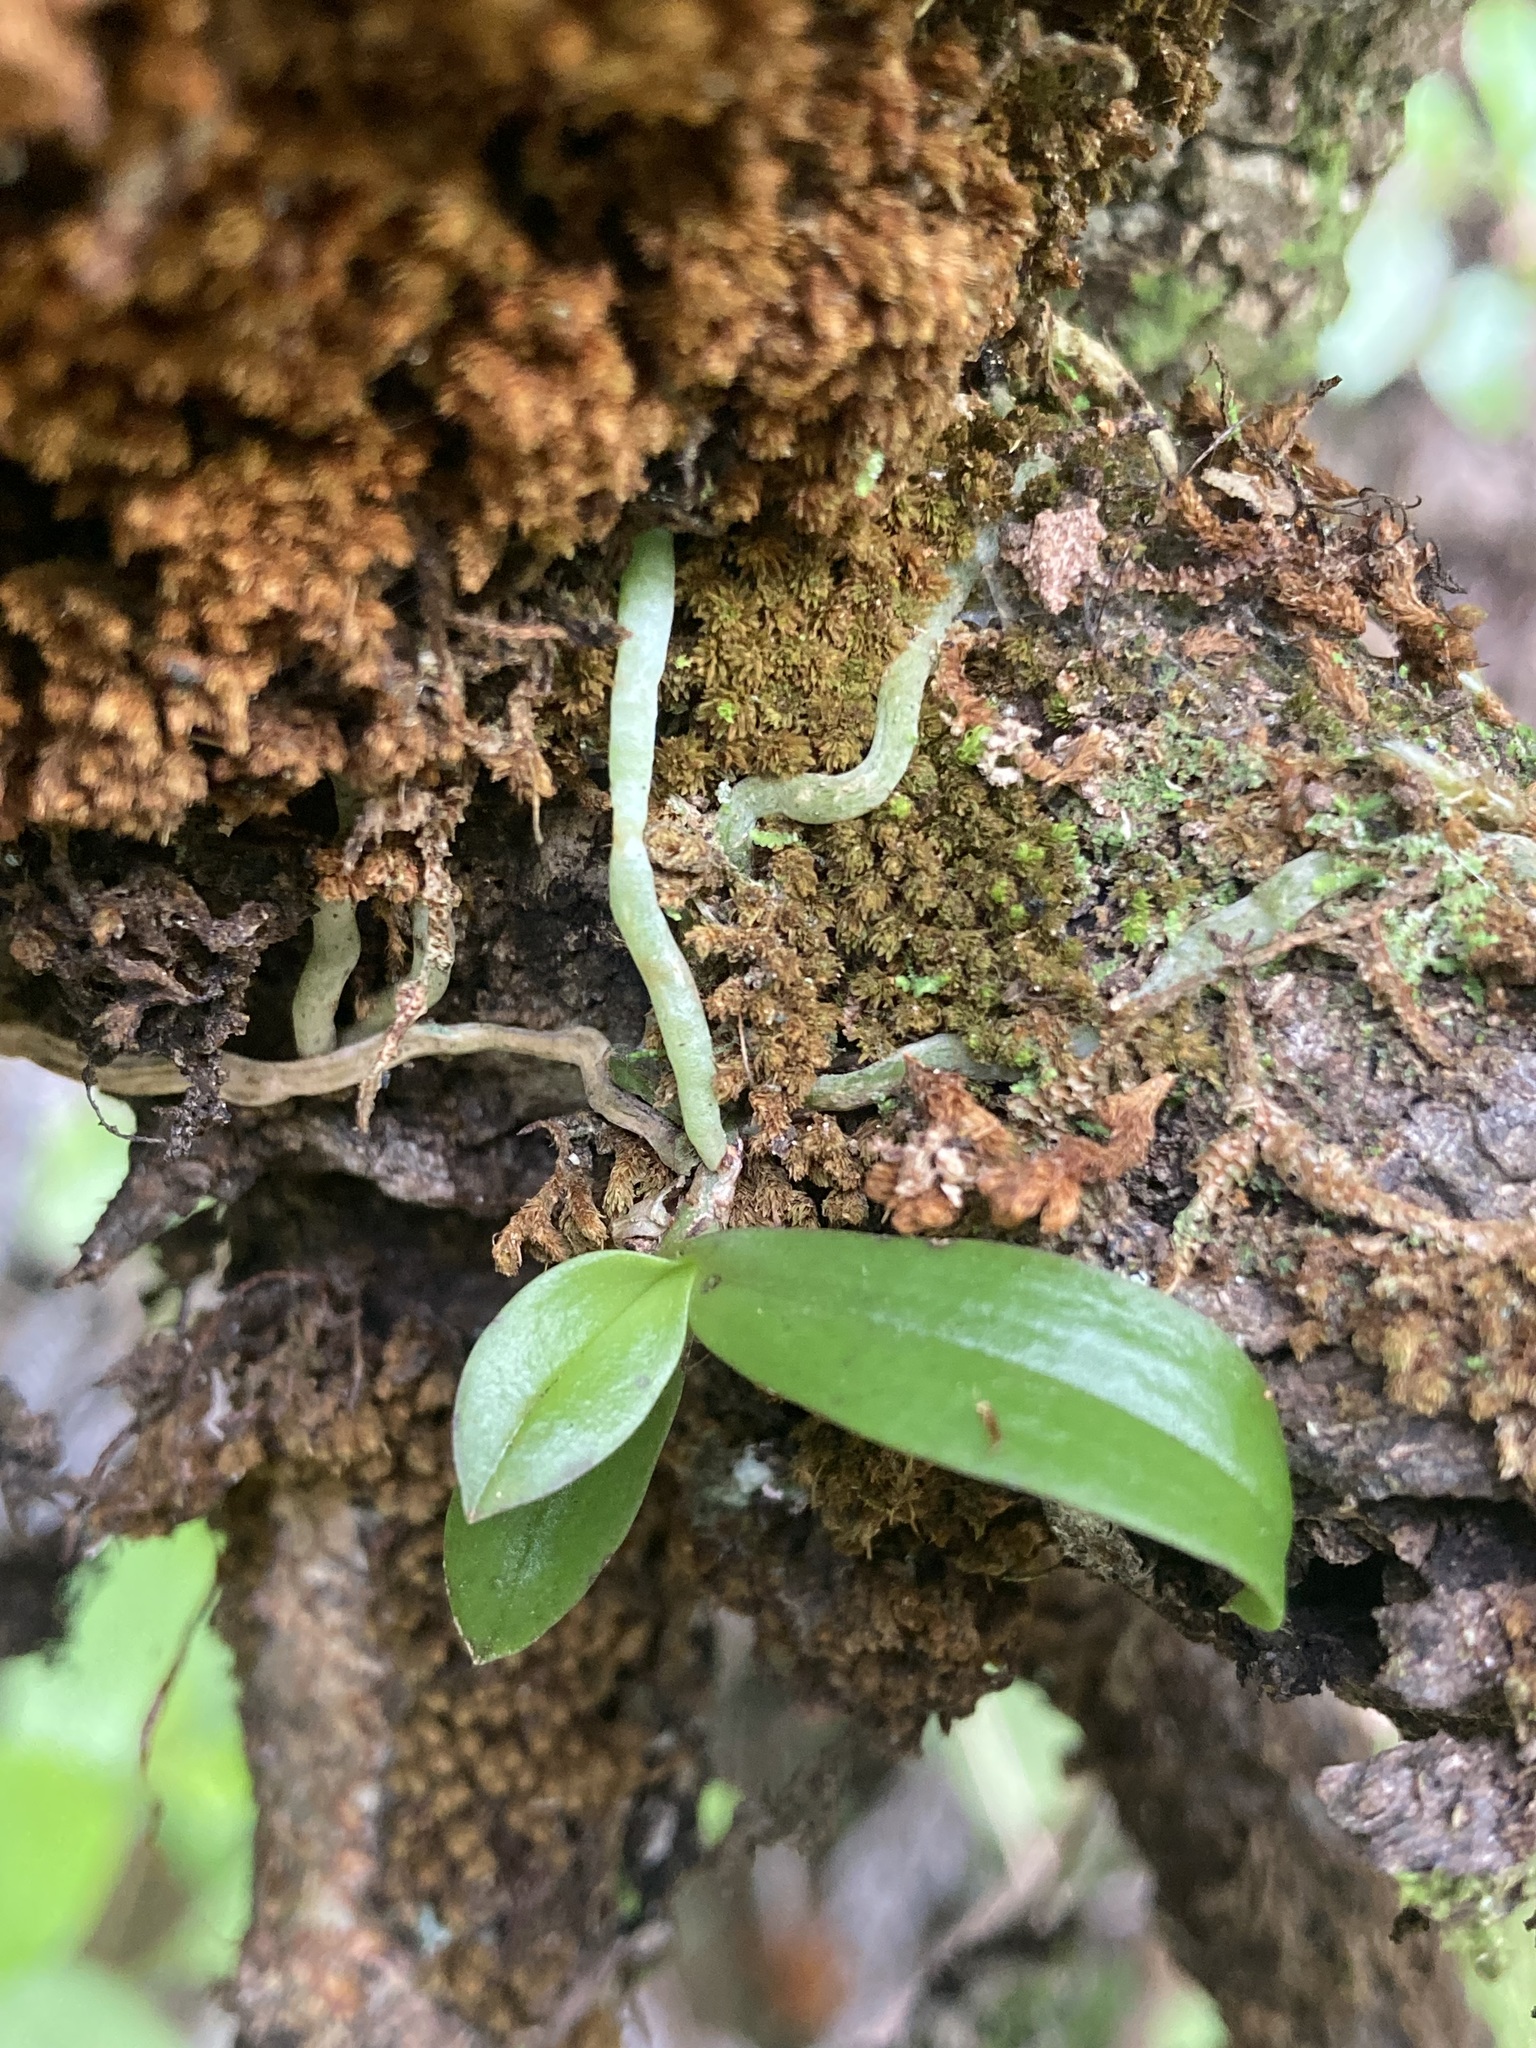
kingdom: Plantae
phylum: Tracheophyta
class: Liliopsida
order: Asparagales
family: Orchidaceae
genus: Drymoanthus
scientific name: Drymoanthus adversus
